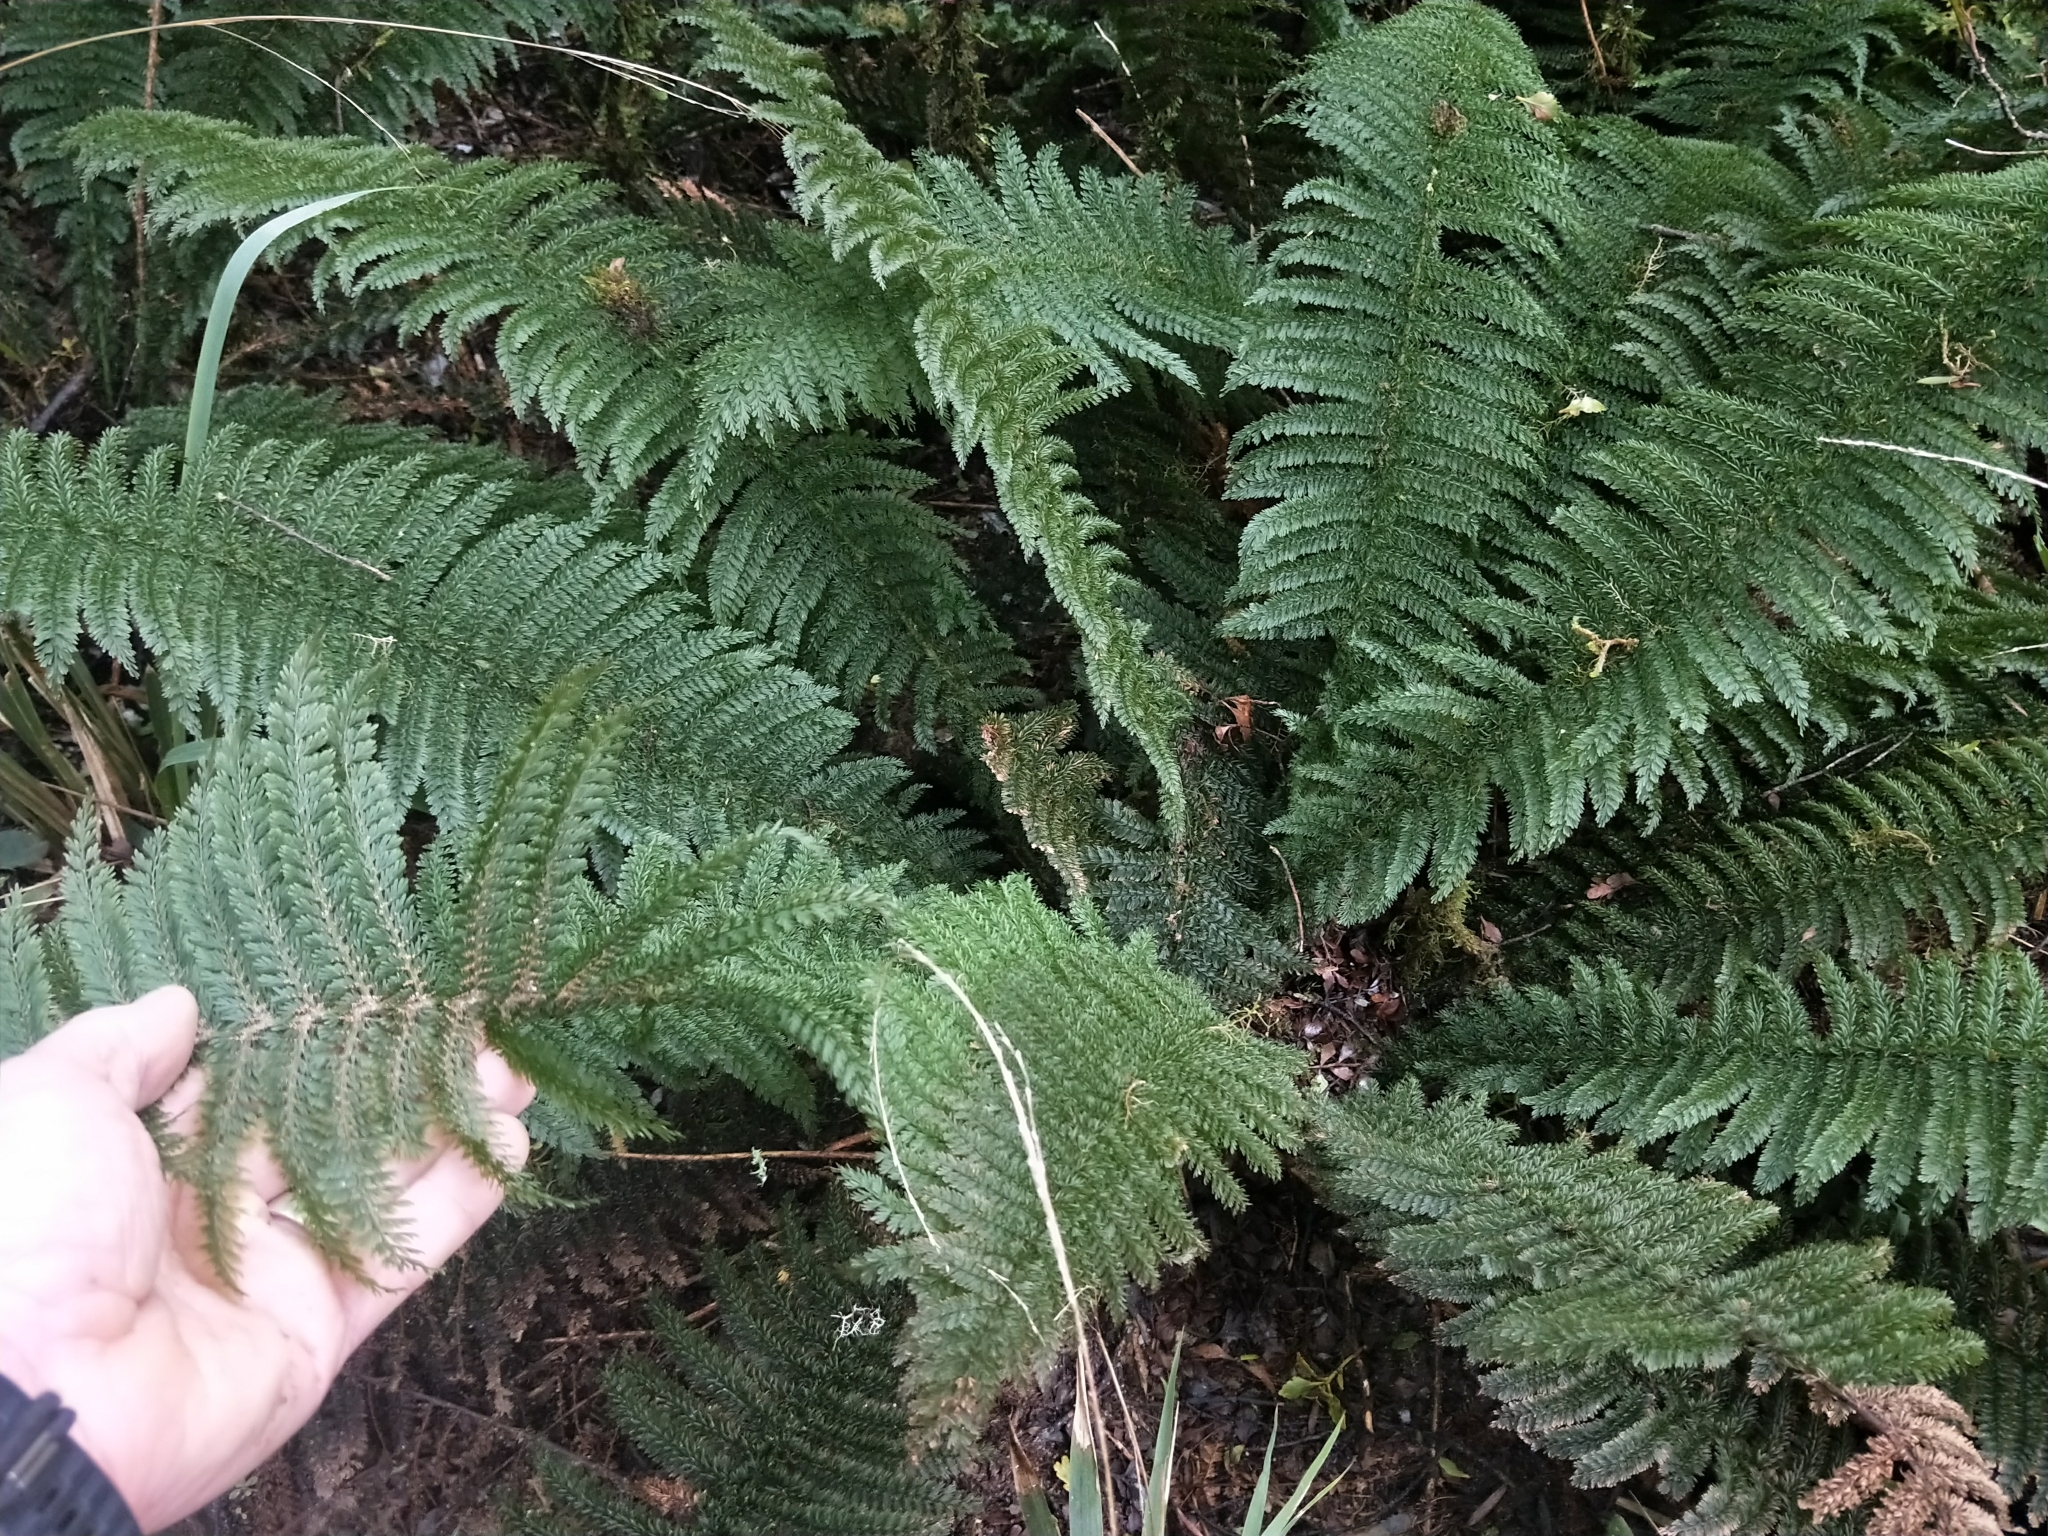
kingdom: Plantae
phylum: Tracheophyta
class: Polypodiopsida
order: Osmundales
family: Osmundaceae
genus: Leptopteris
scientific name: Leptopteris superba
